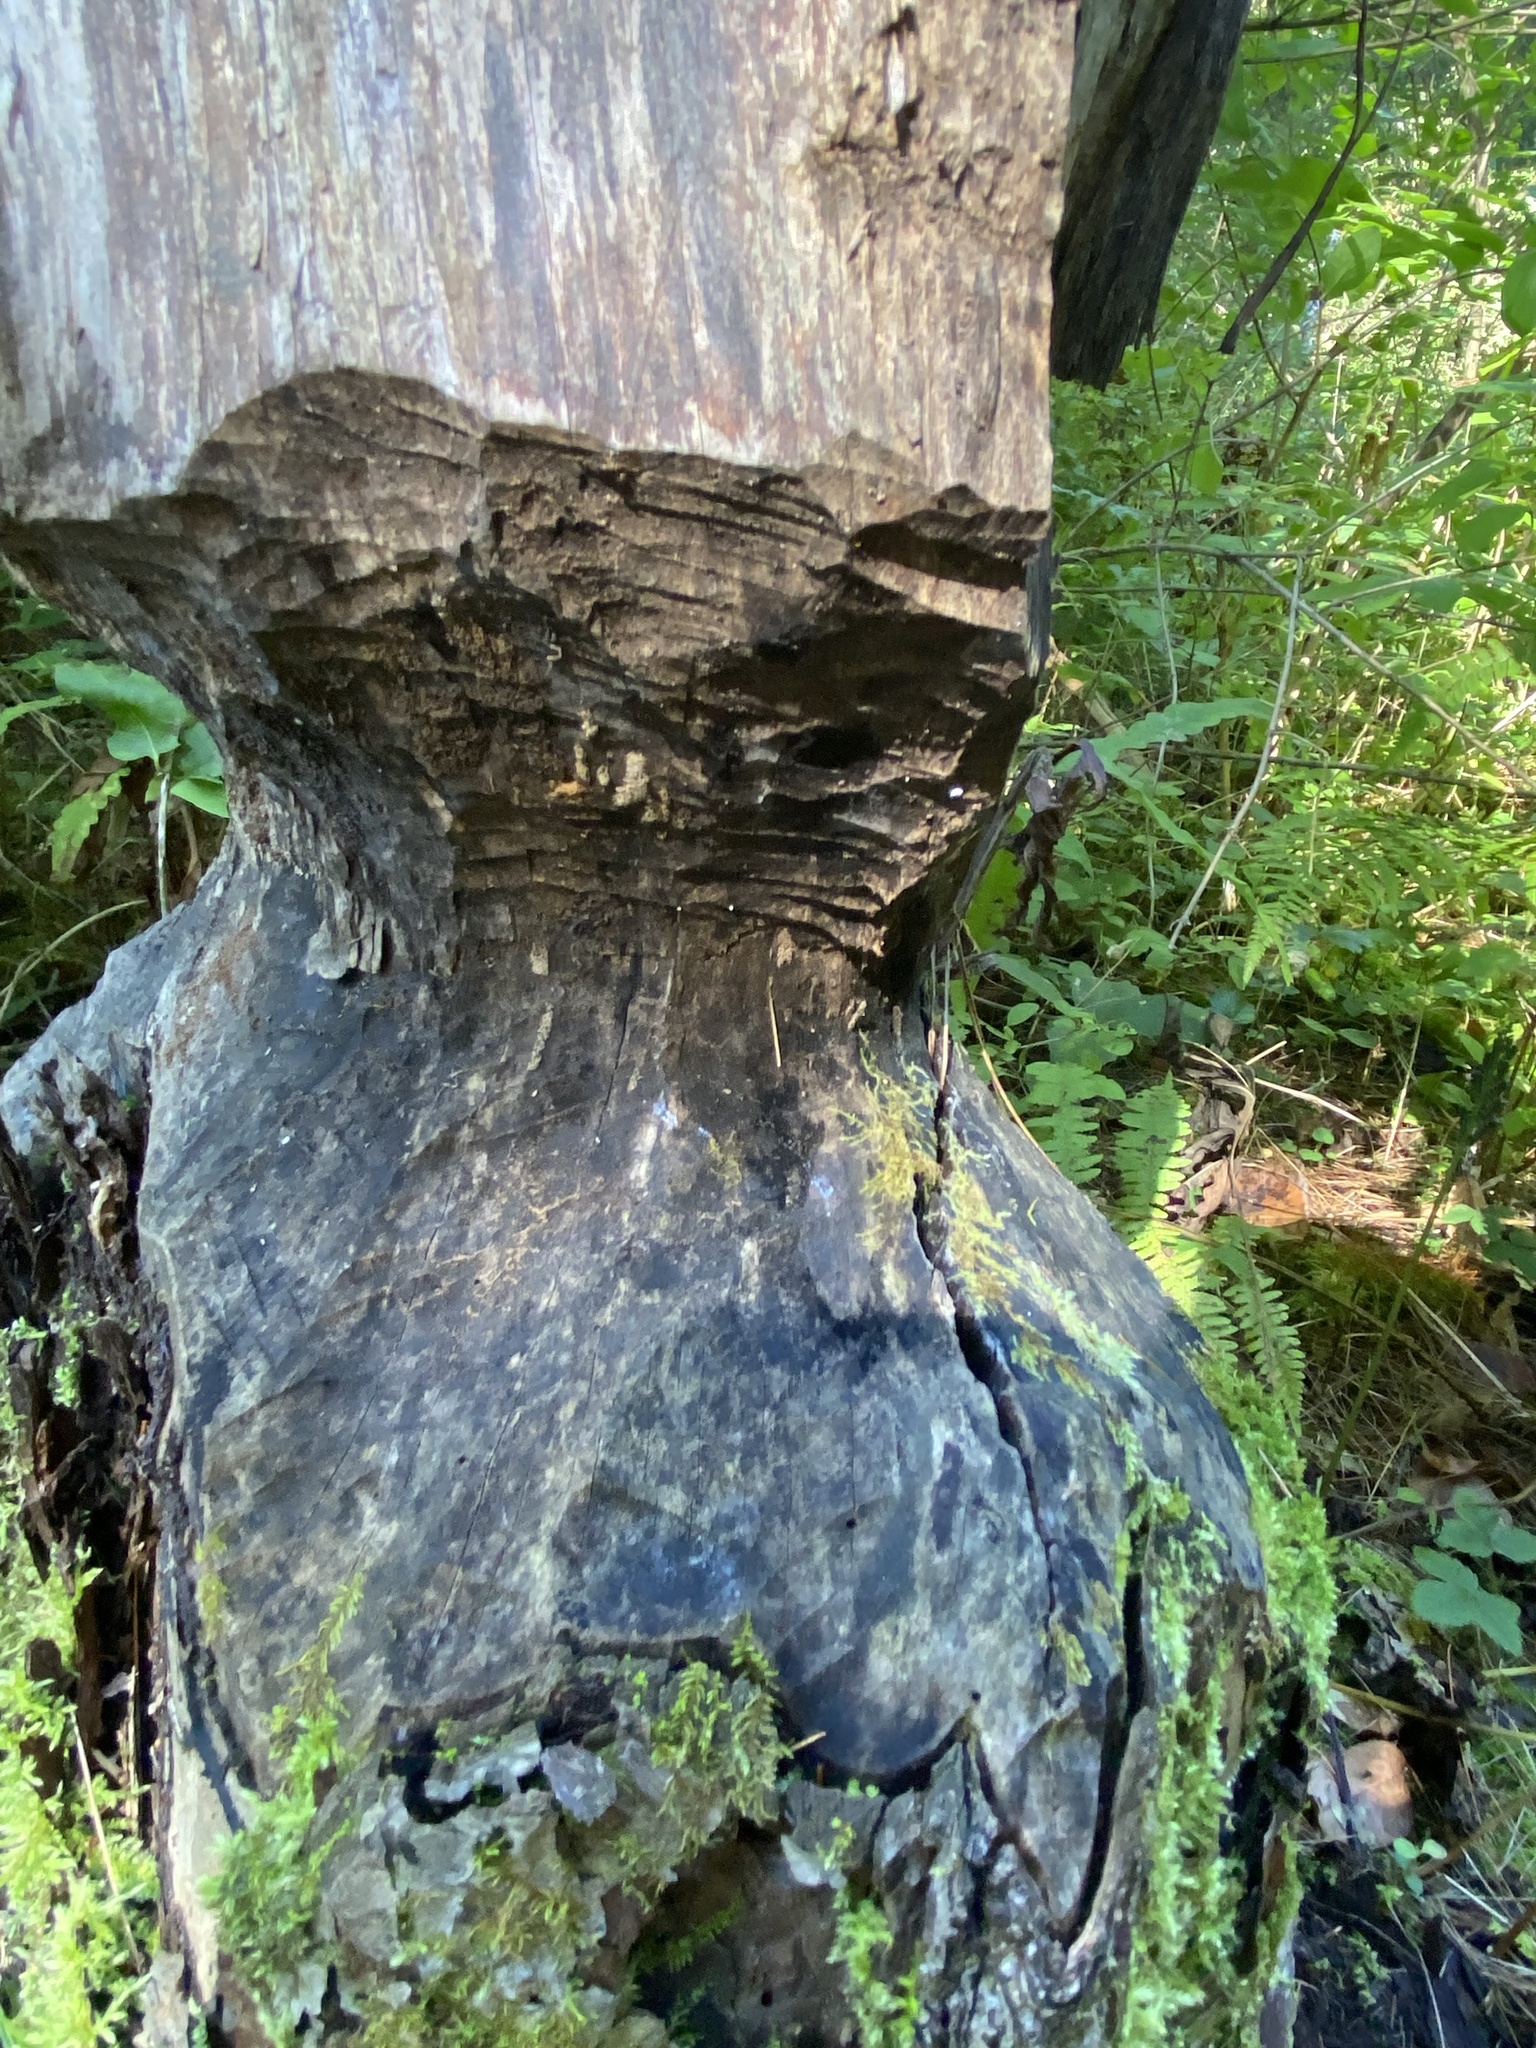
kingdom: Animalia
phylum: Chordata
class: Mammalia
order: Rodentia
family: Castoridae
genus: Castor
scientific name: Castor canadensis
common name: American beaver
